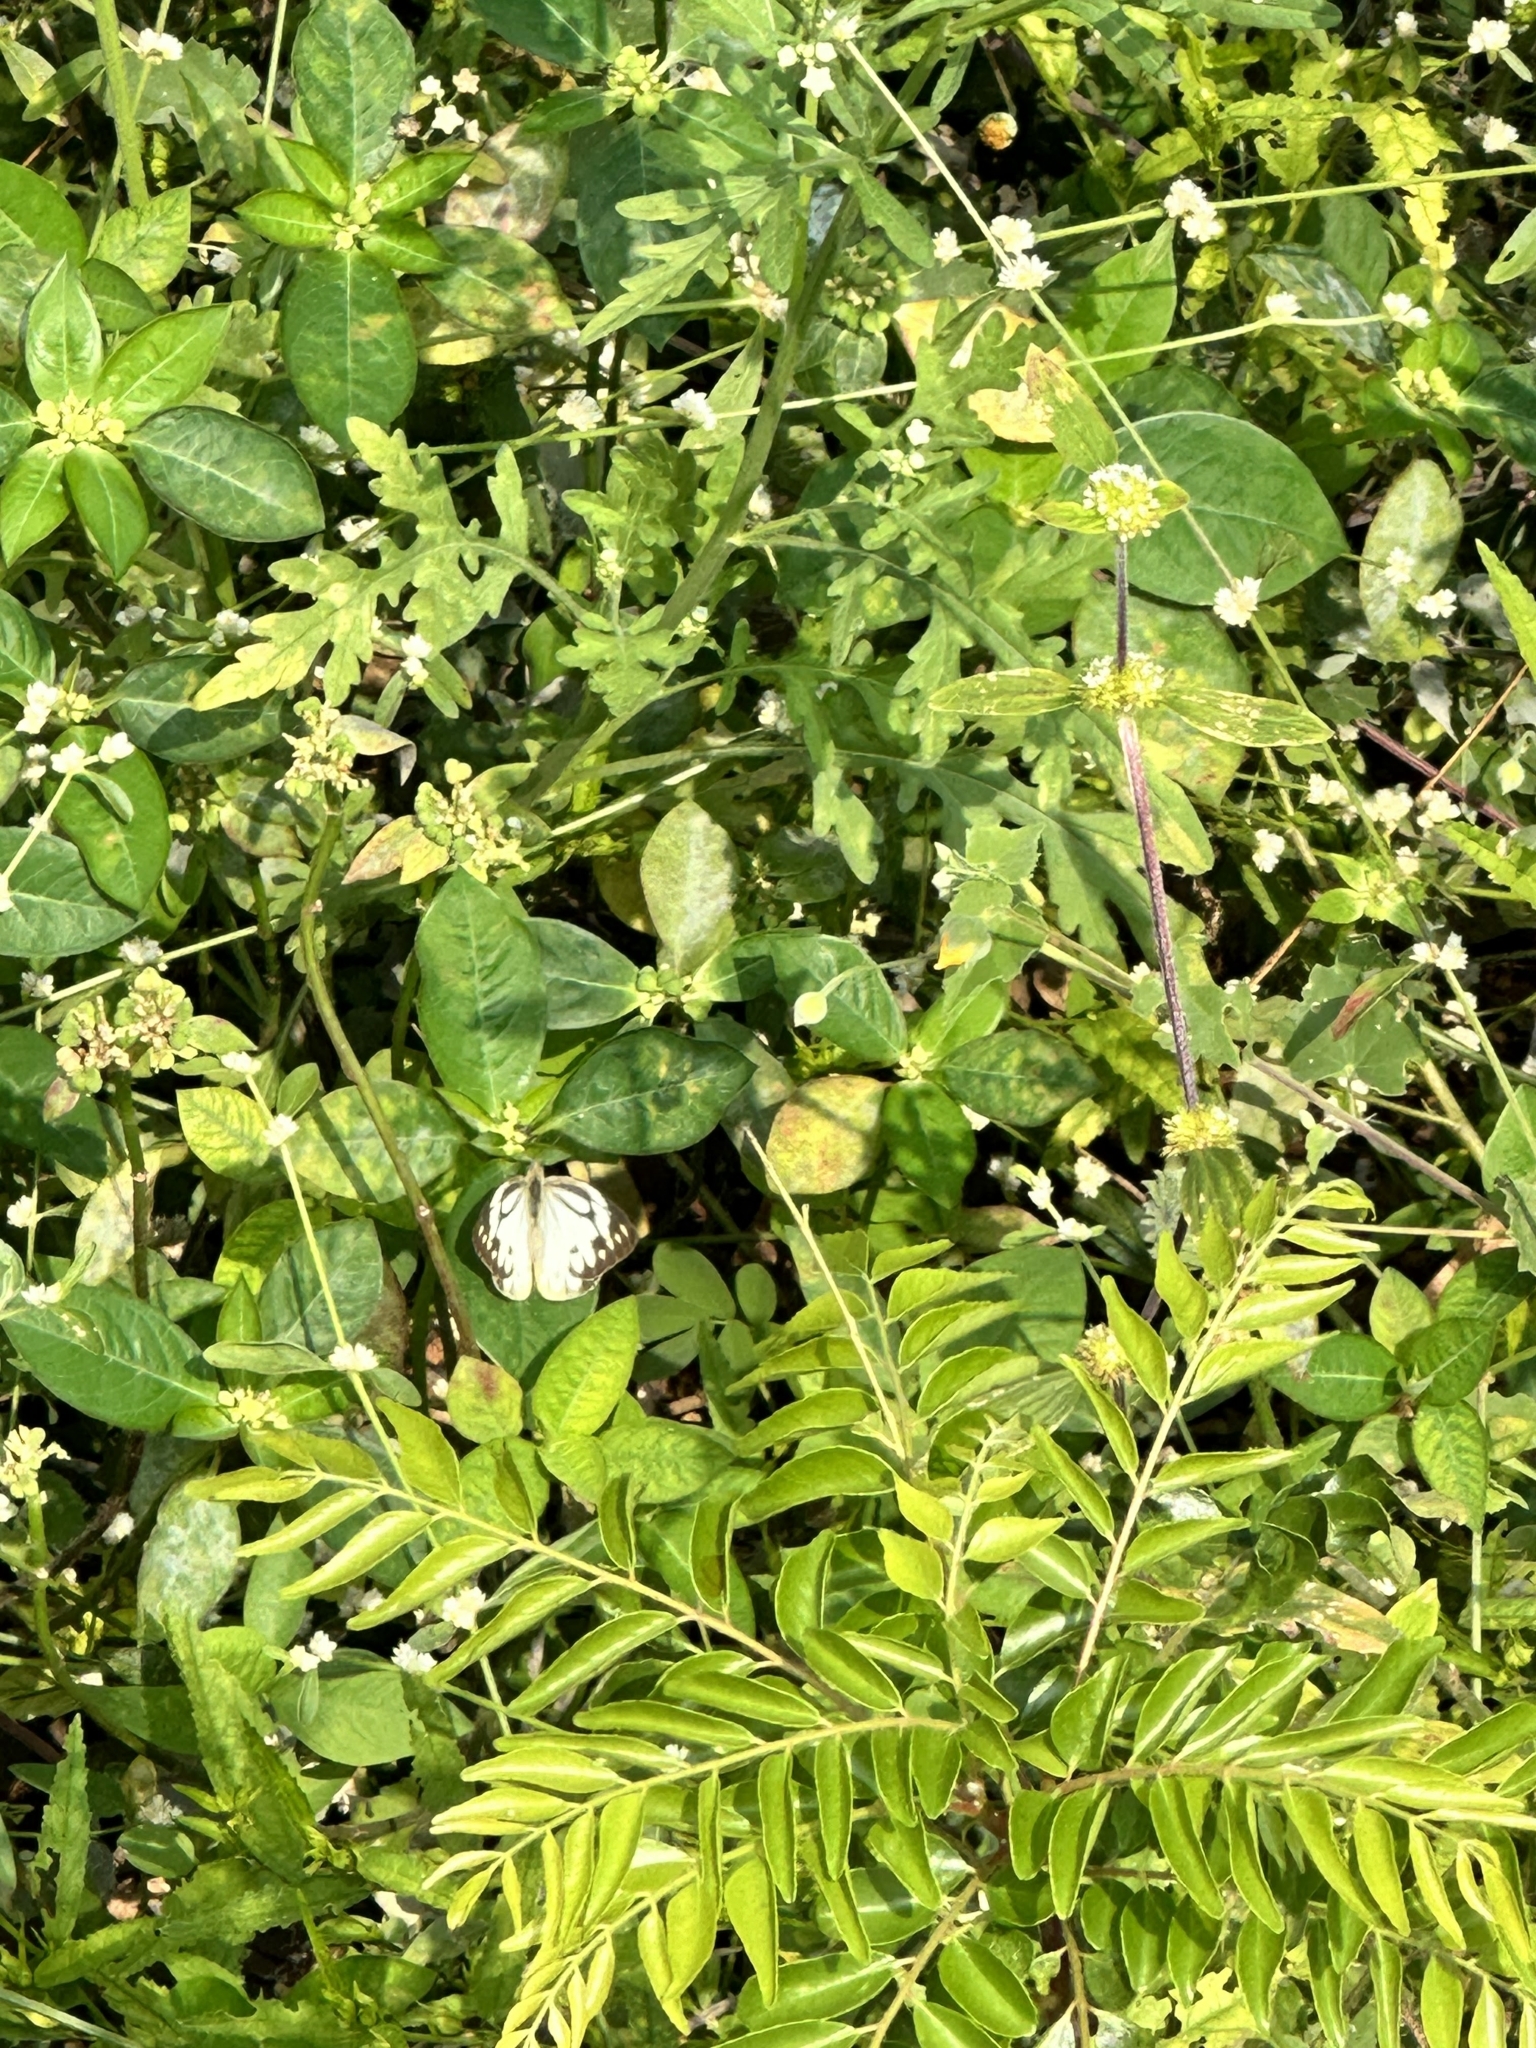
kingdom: Animalia
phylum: Arthropoda
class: Insecta
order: Lepidoptera
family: Pieridae
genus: Cepora
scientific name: Cepora nerissa
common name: Common gull
